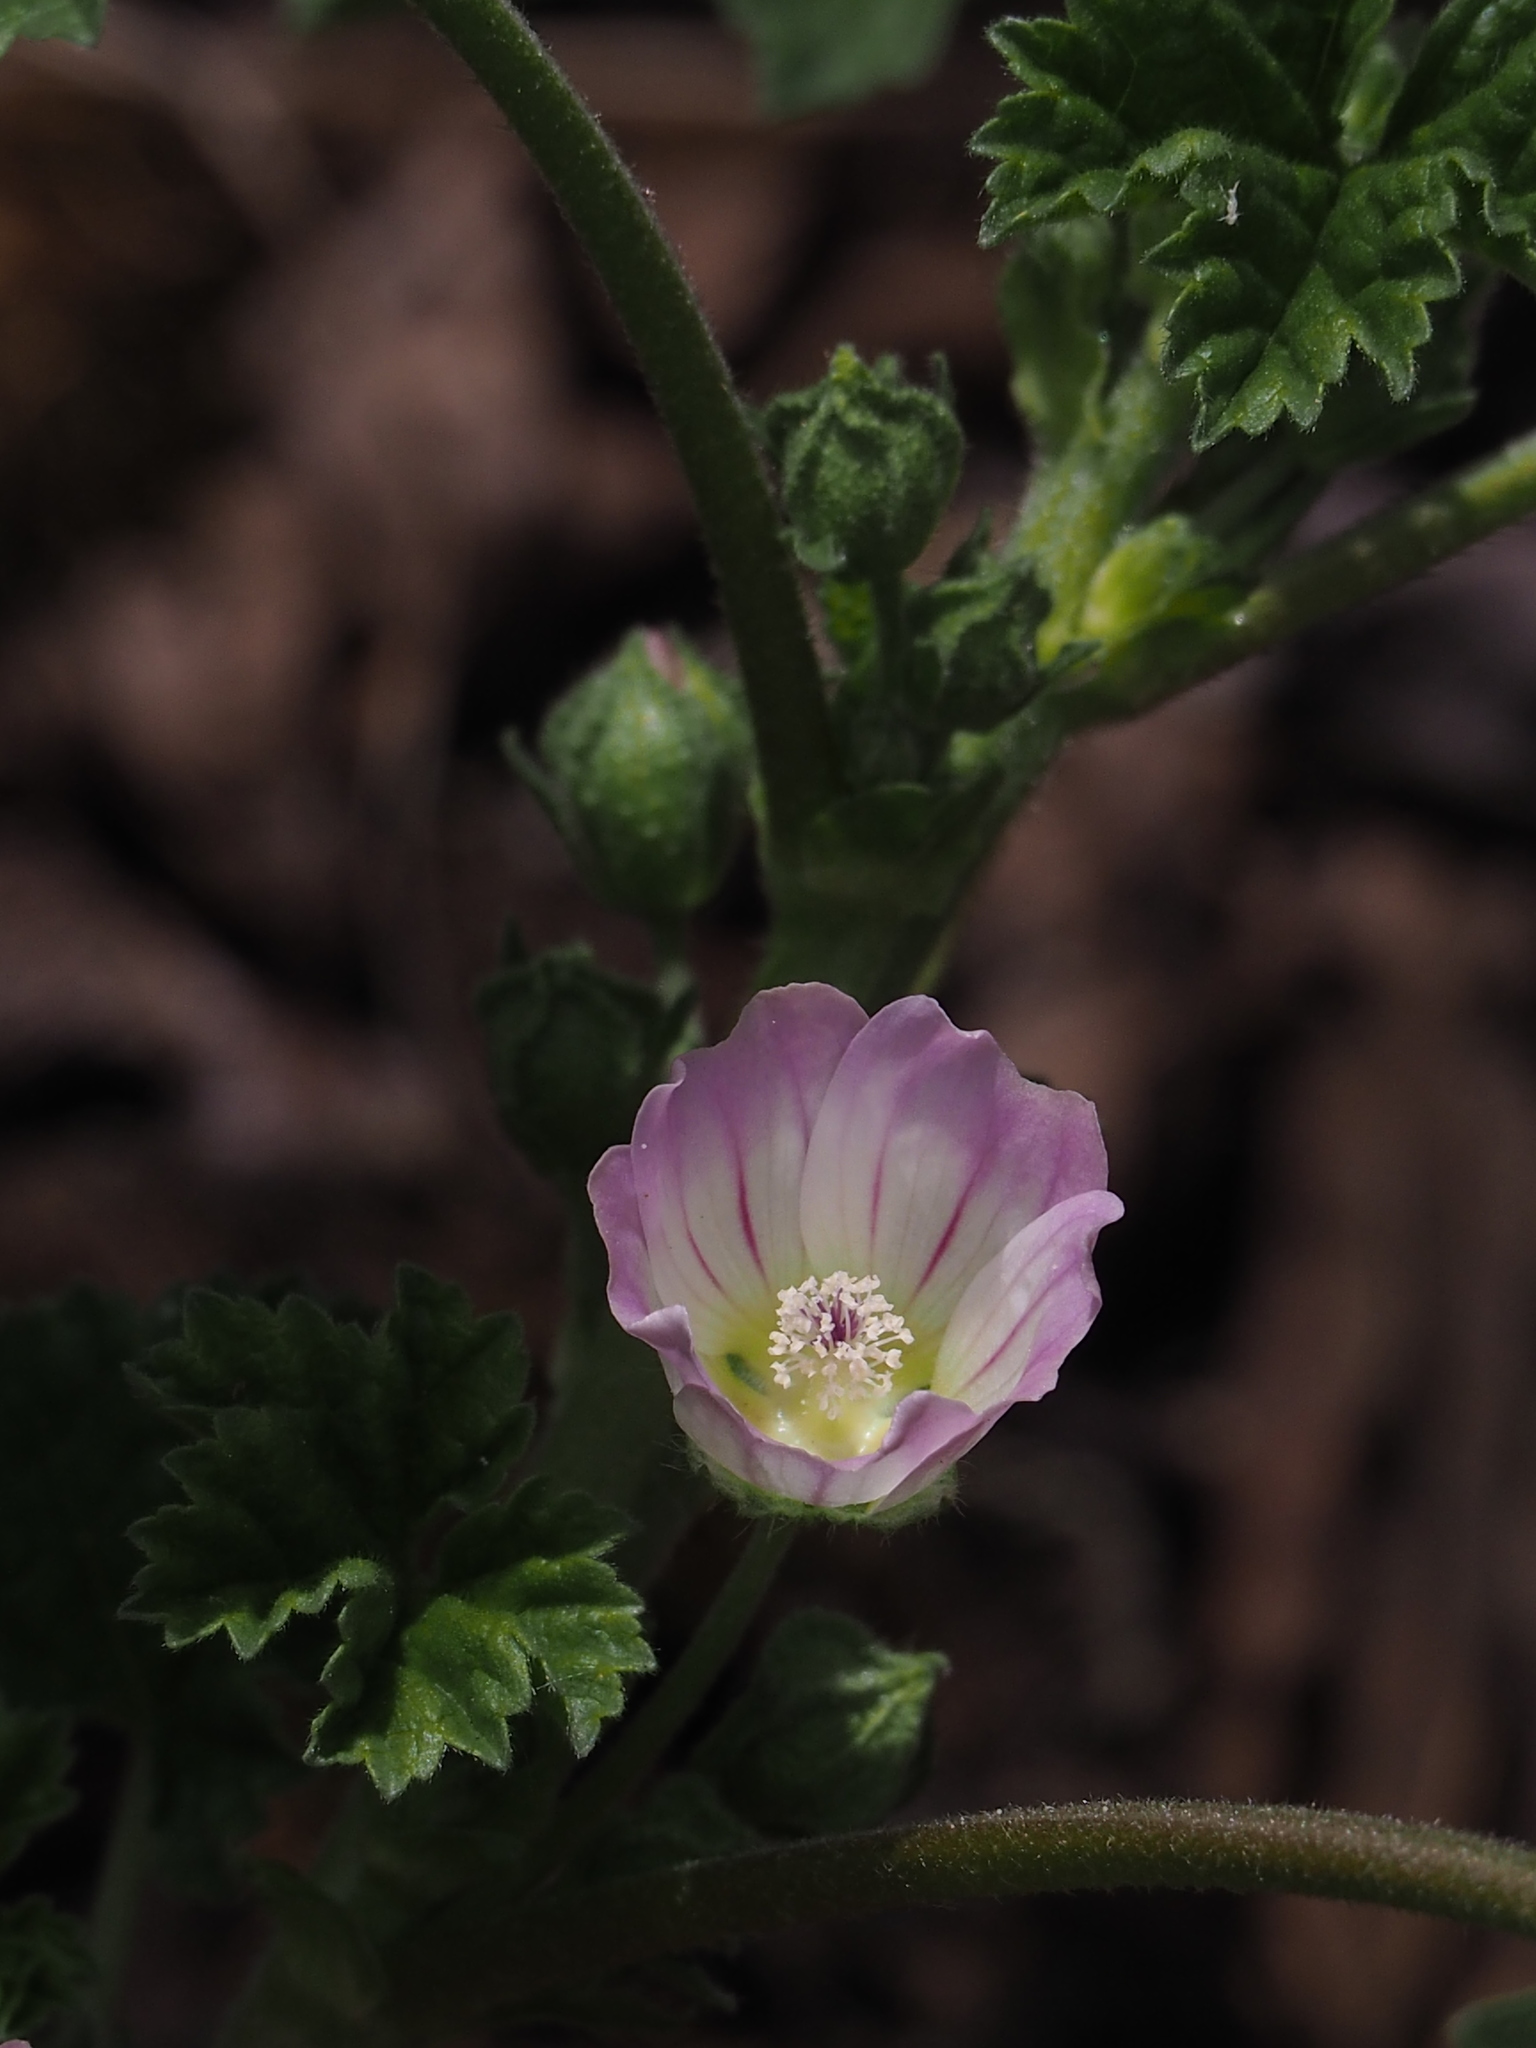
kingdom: Plantae
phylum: Tracheophyta
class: Magnoliopsida
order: Malvales
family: Malvaceae
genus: Malva
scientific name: Malva neglecta
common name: Common mallow
